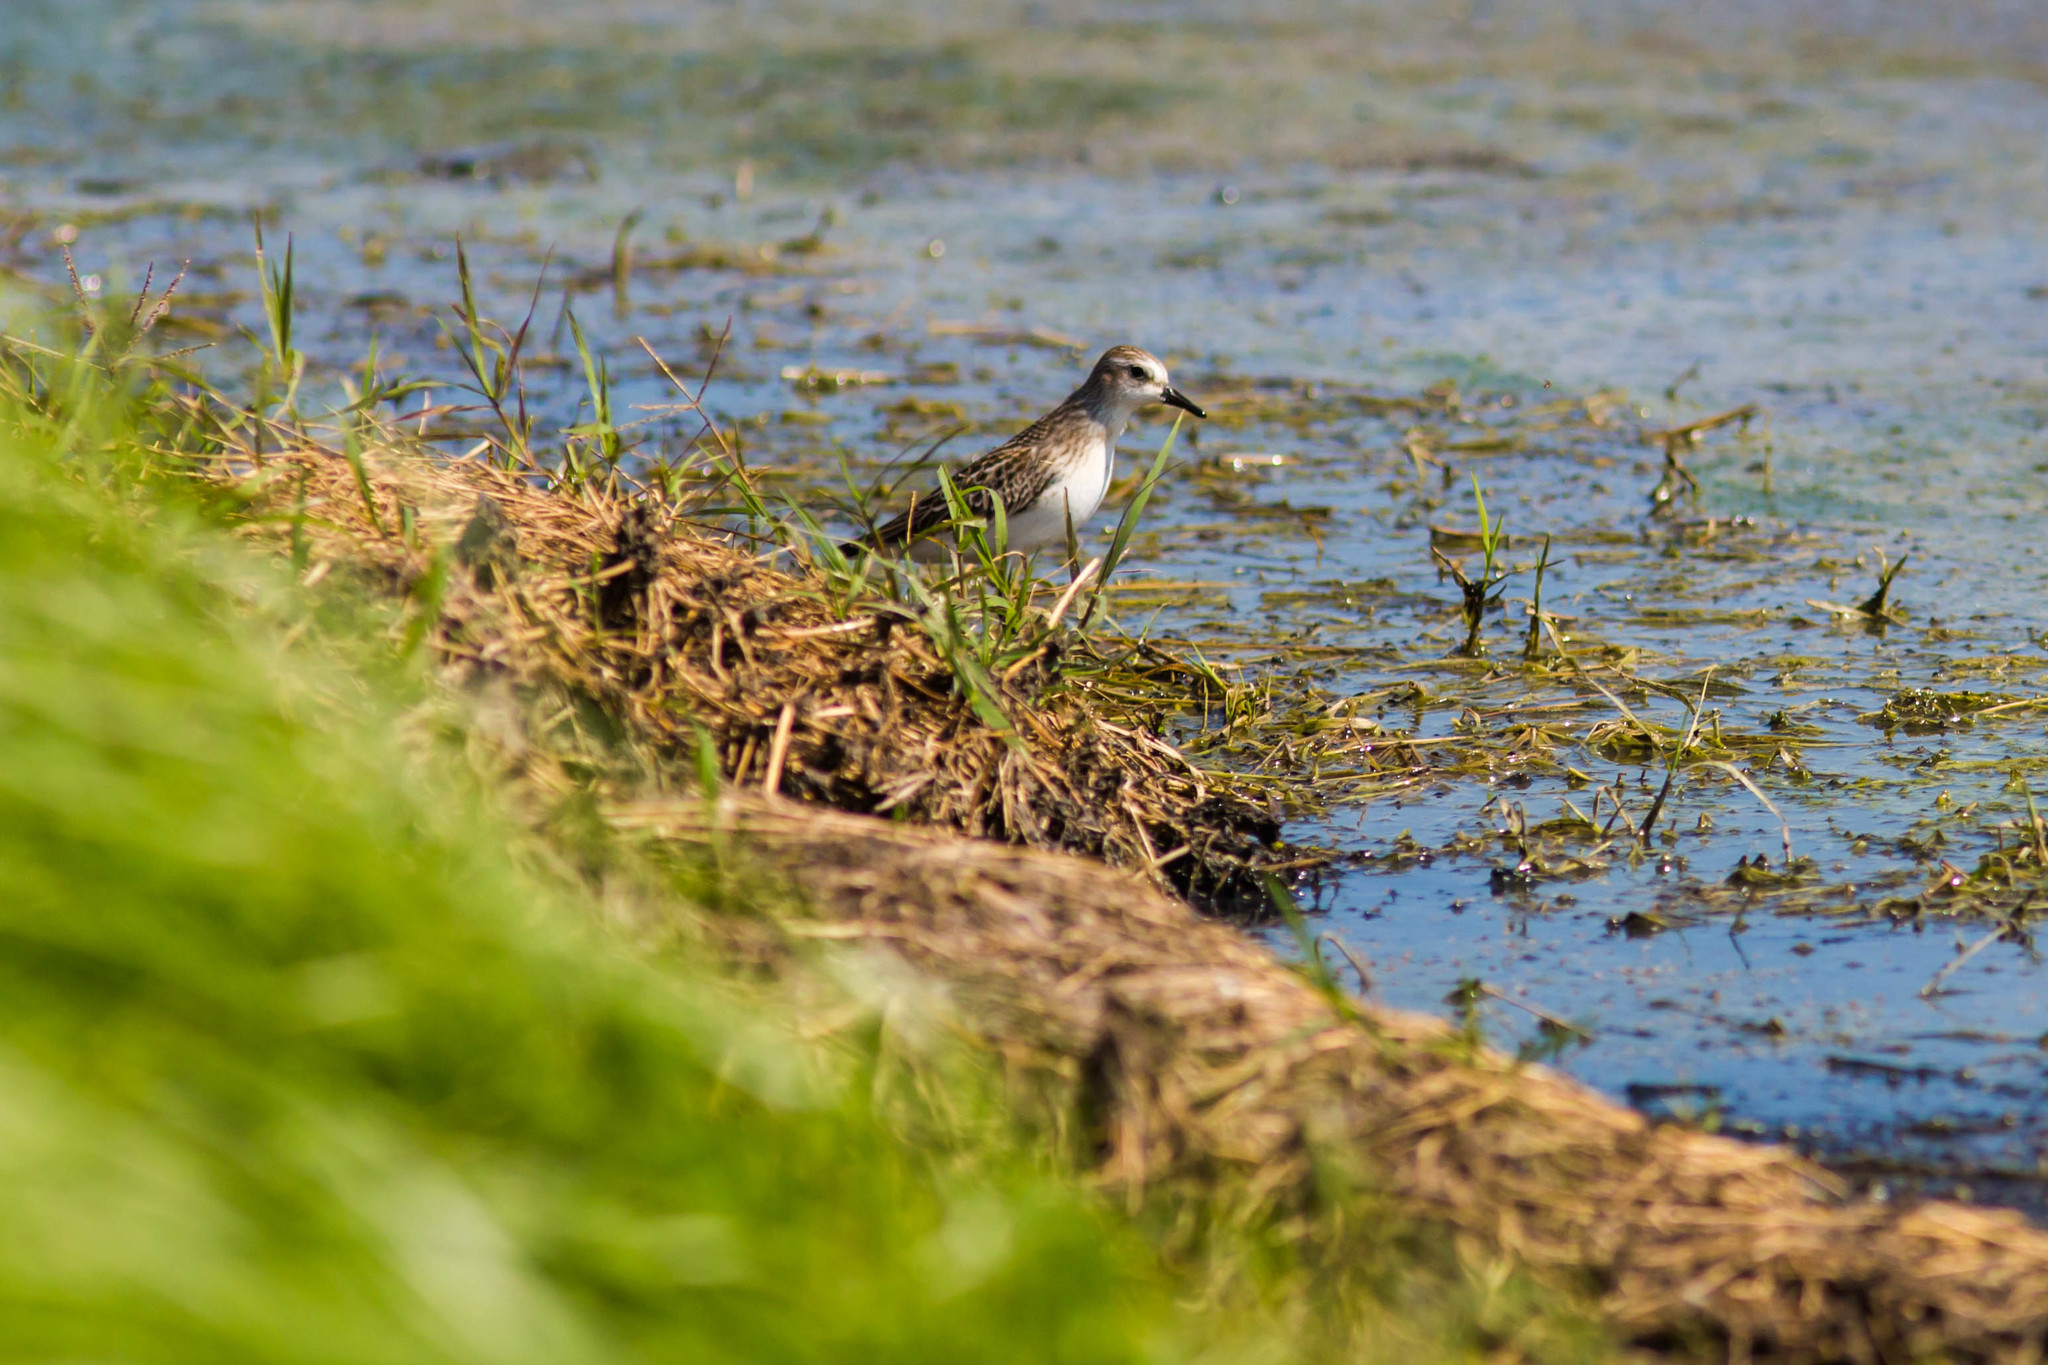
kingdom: Animalia
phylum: Chordata
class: Aves
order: Charadriiformes
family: Scolopacidae
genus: Calidris
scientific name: Calidris minutilla
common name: Least sandpiper
